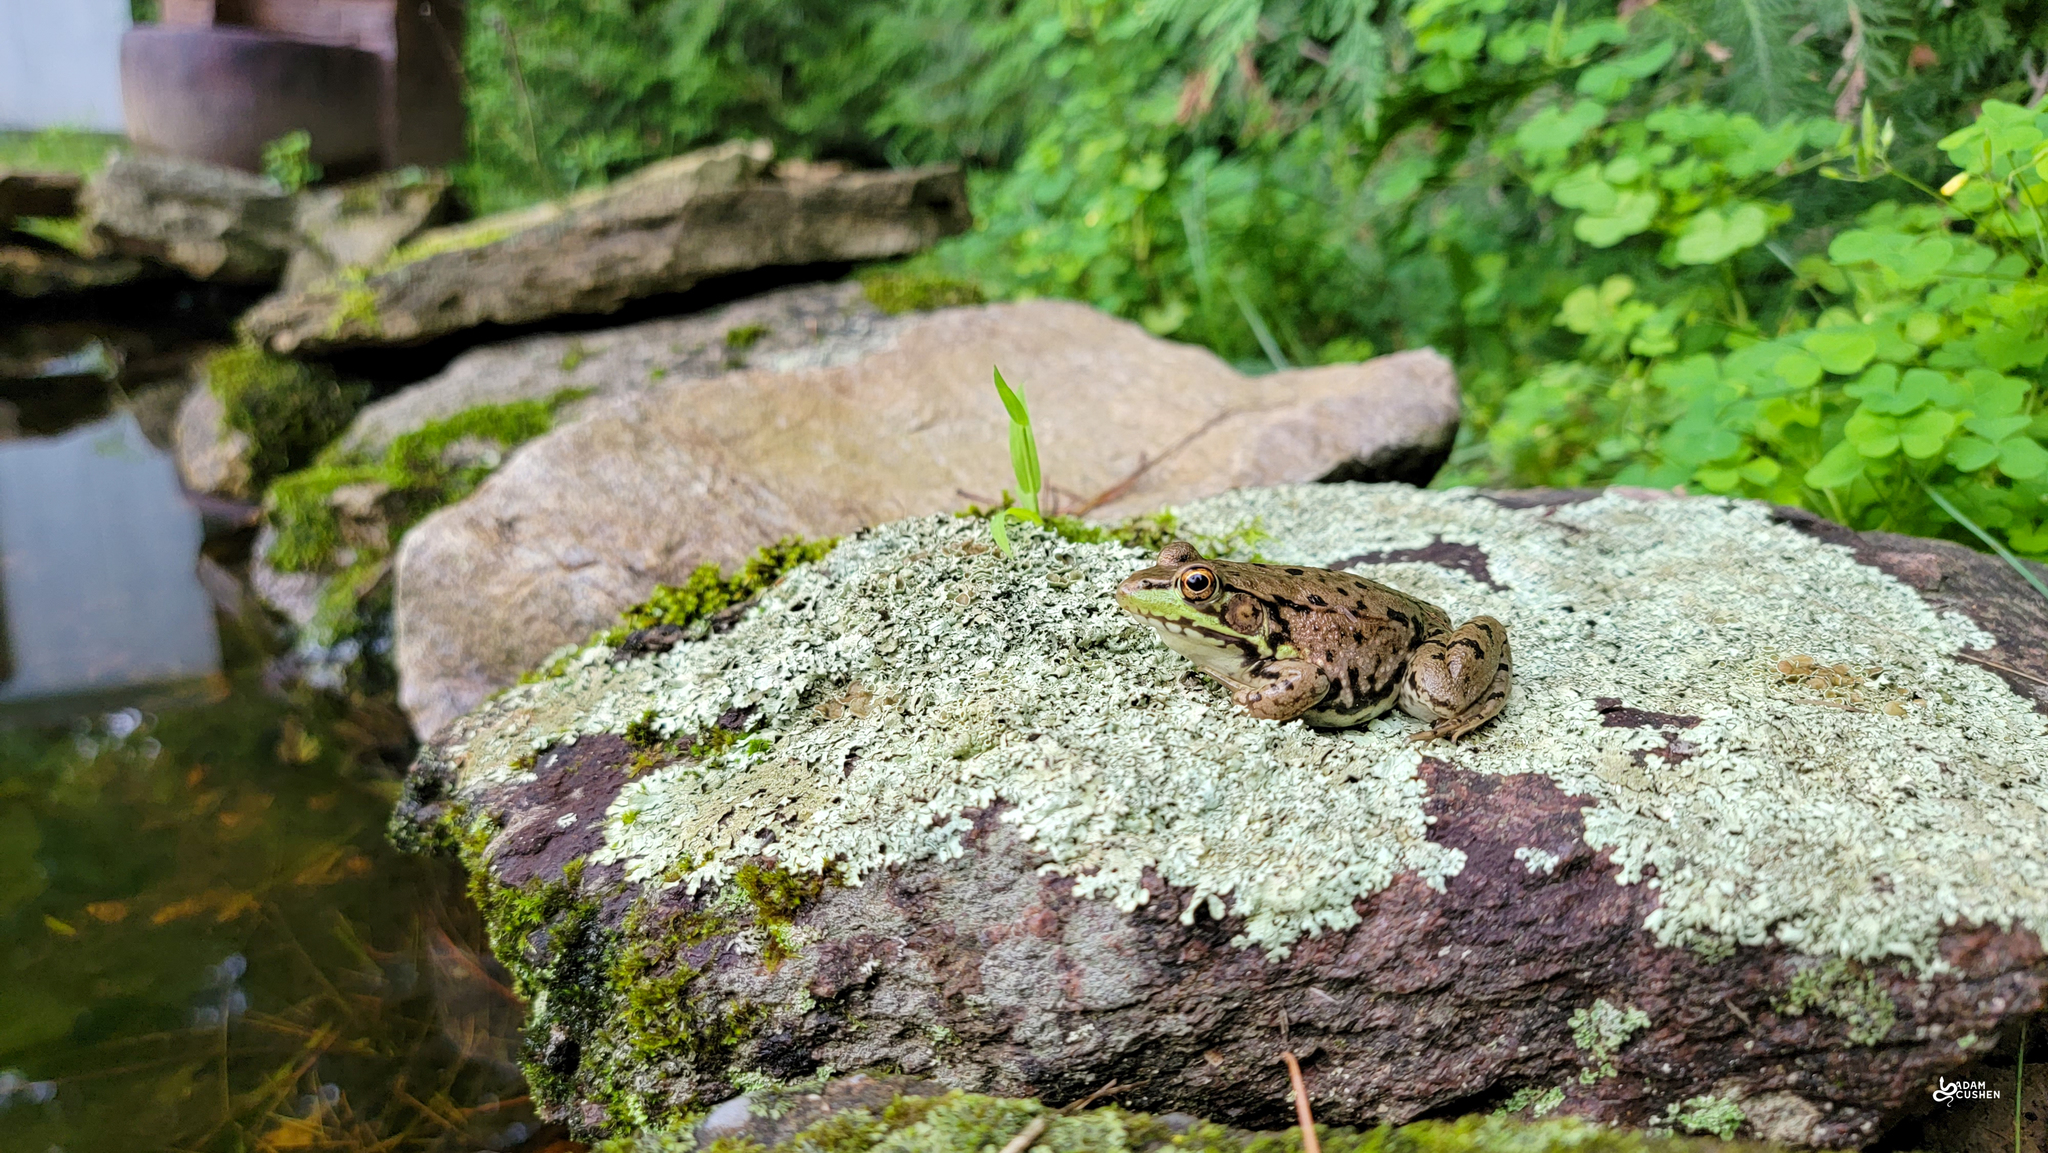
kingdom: Animalia
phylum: Chordata
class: Amphibia
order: Anura
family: Ranidae
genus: Lithobates
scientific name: Lithobates clamitans
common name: Green frog
